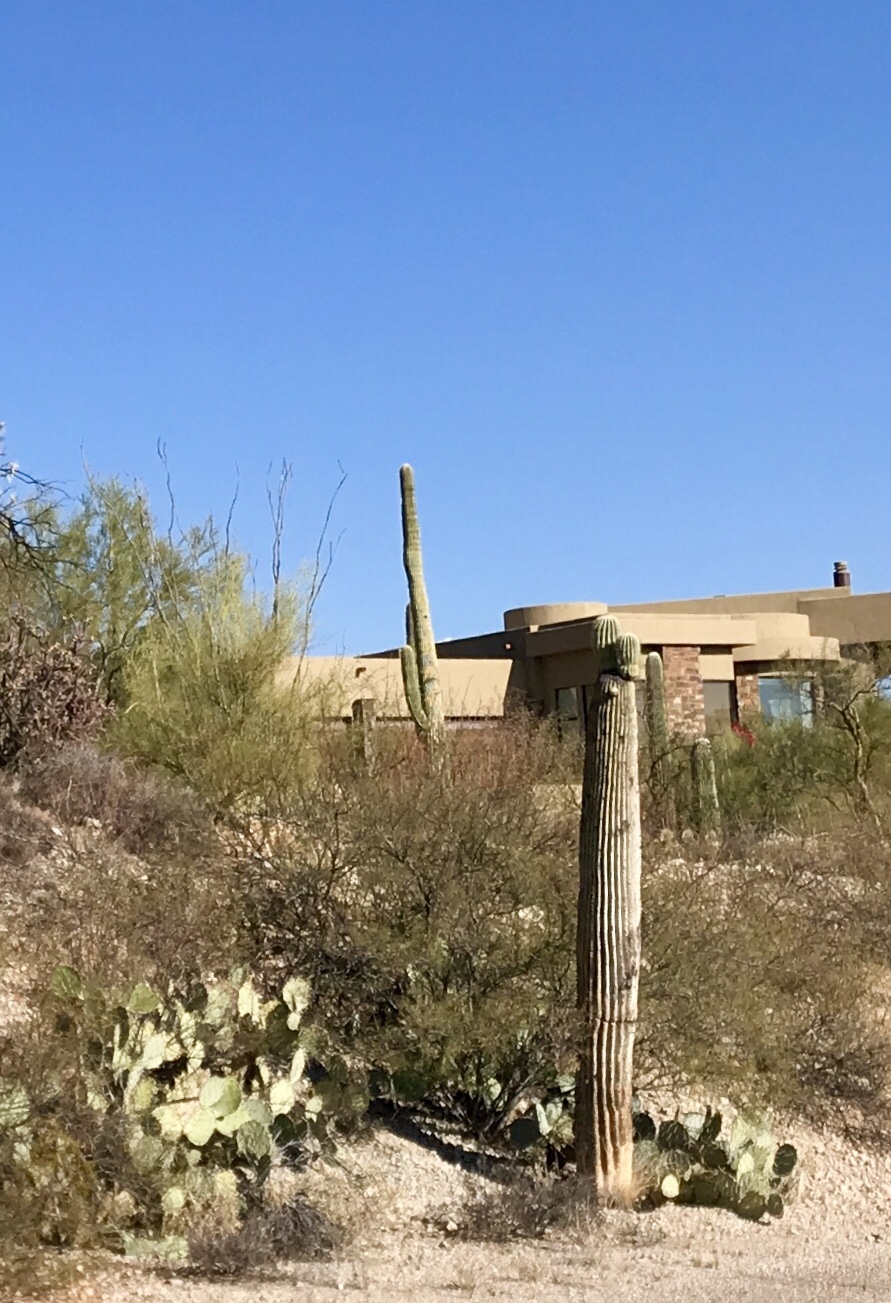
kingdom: Plantae
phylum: Tracheophyta
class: Magnoliopsida
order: Caryophyllales
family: Cactaceae
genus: Carnegiea
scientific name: Carnegiea gigantea
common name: Saguaro
